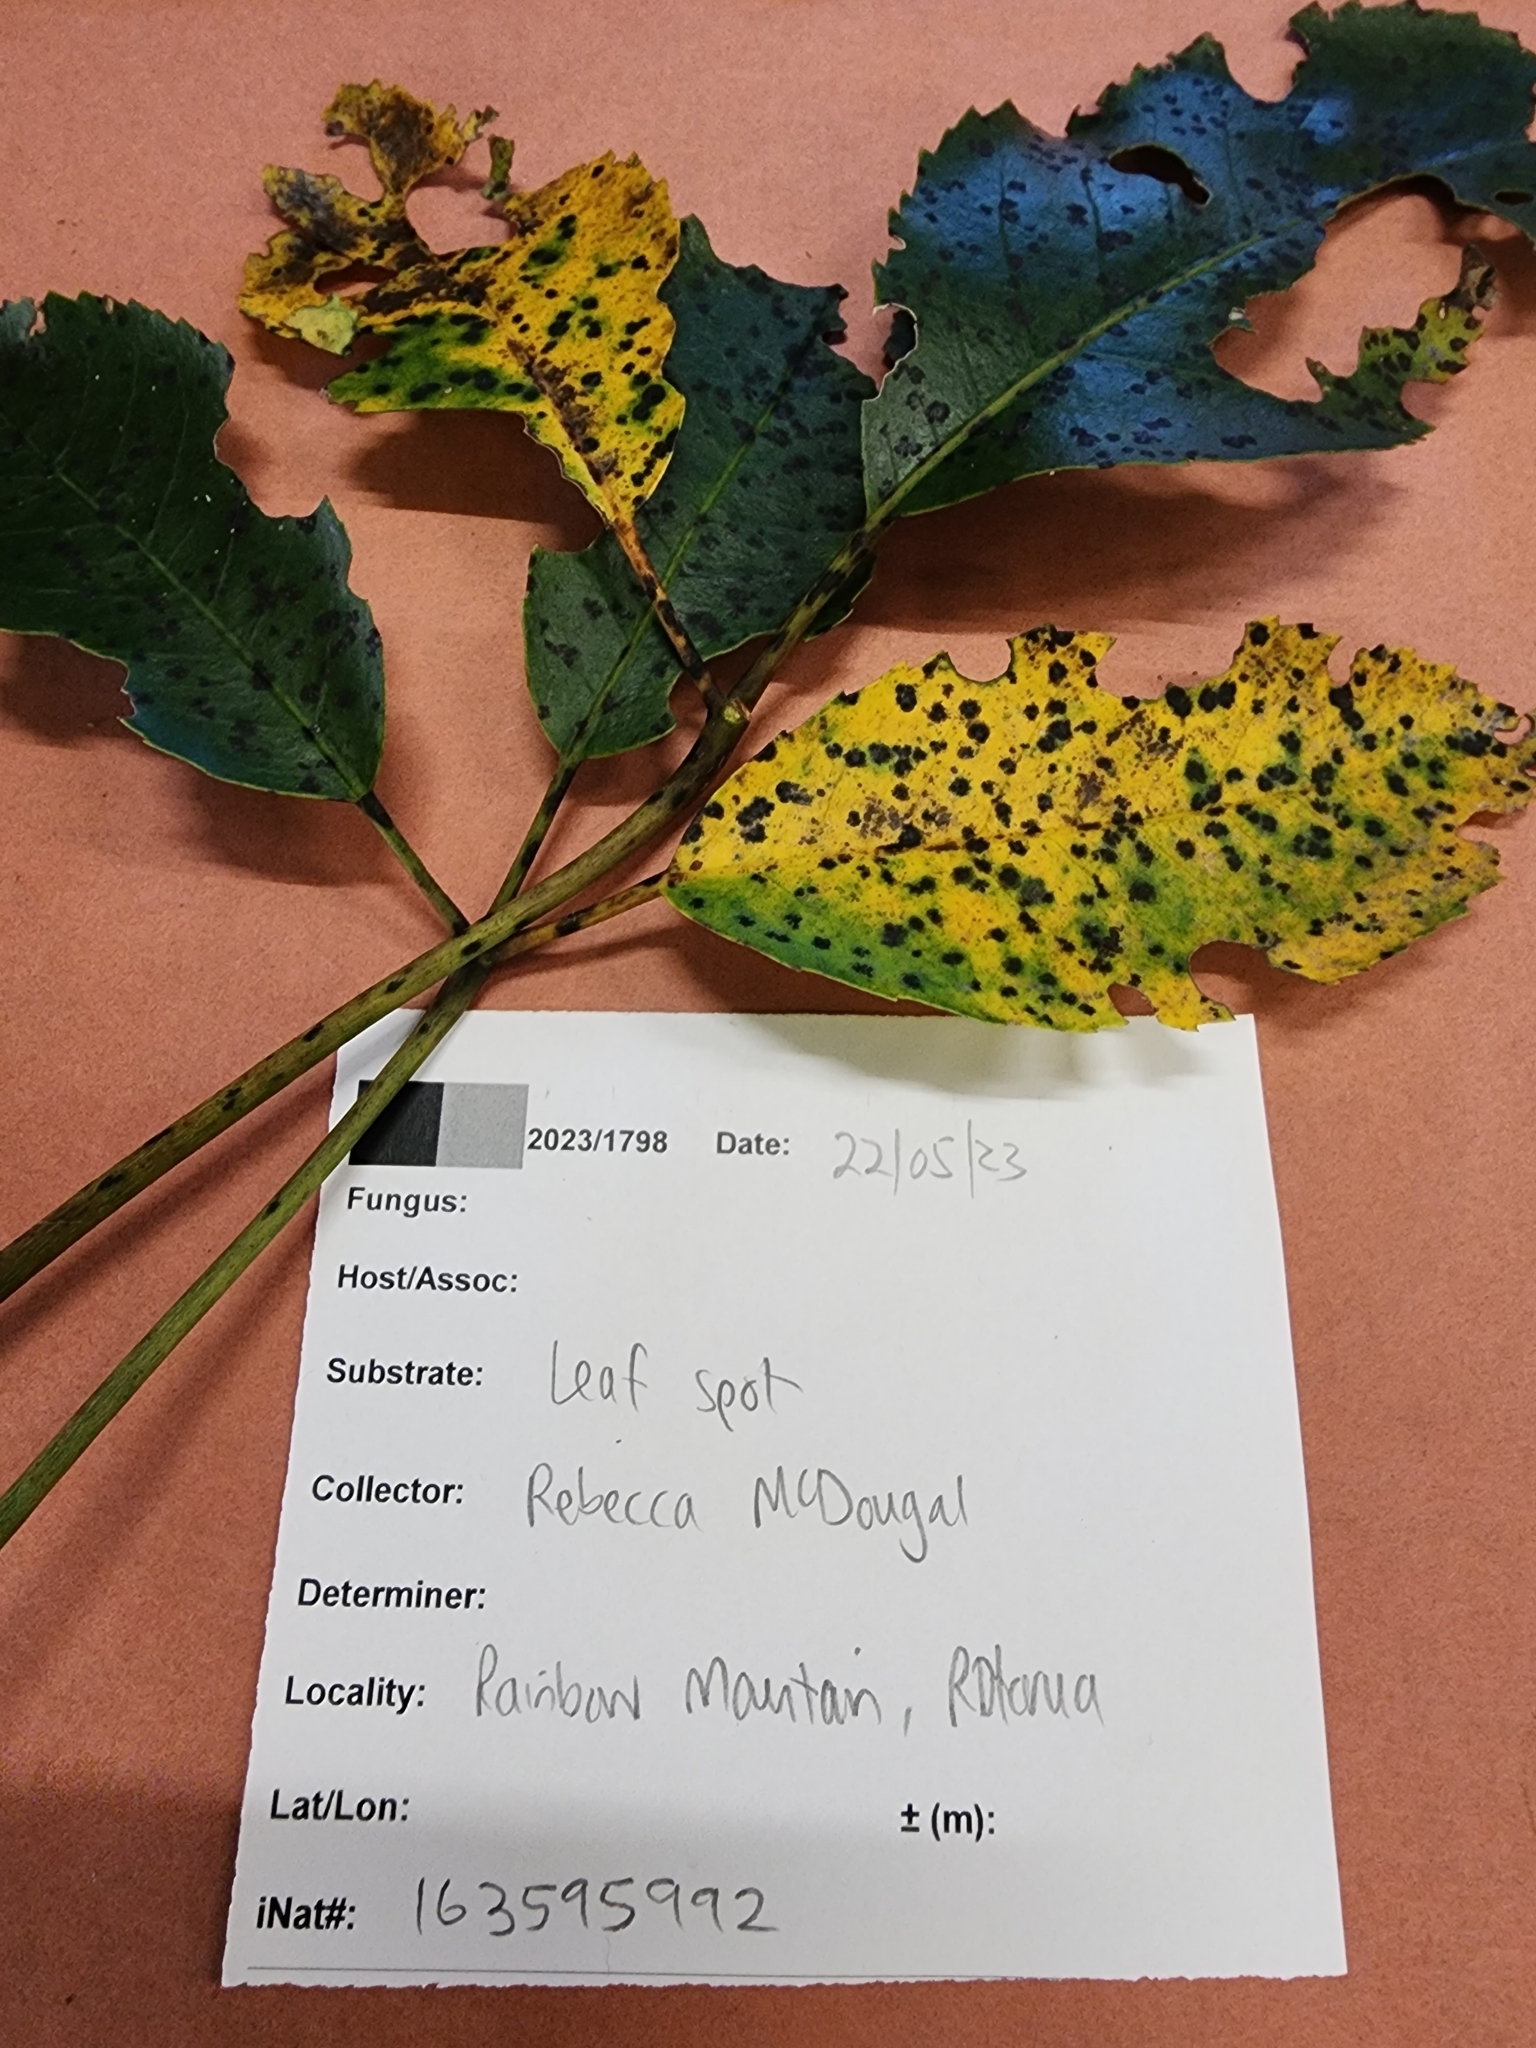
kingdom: Plantae
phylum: Tracheophyta
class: Magnoliopsida
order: Apiales
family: Araliaceae
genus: Neopanax
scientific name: Neopanax arboreus
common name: Five-fingers
